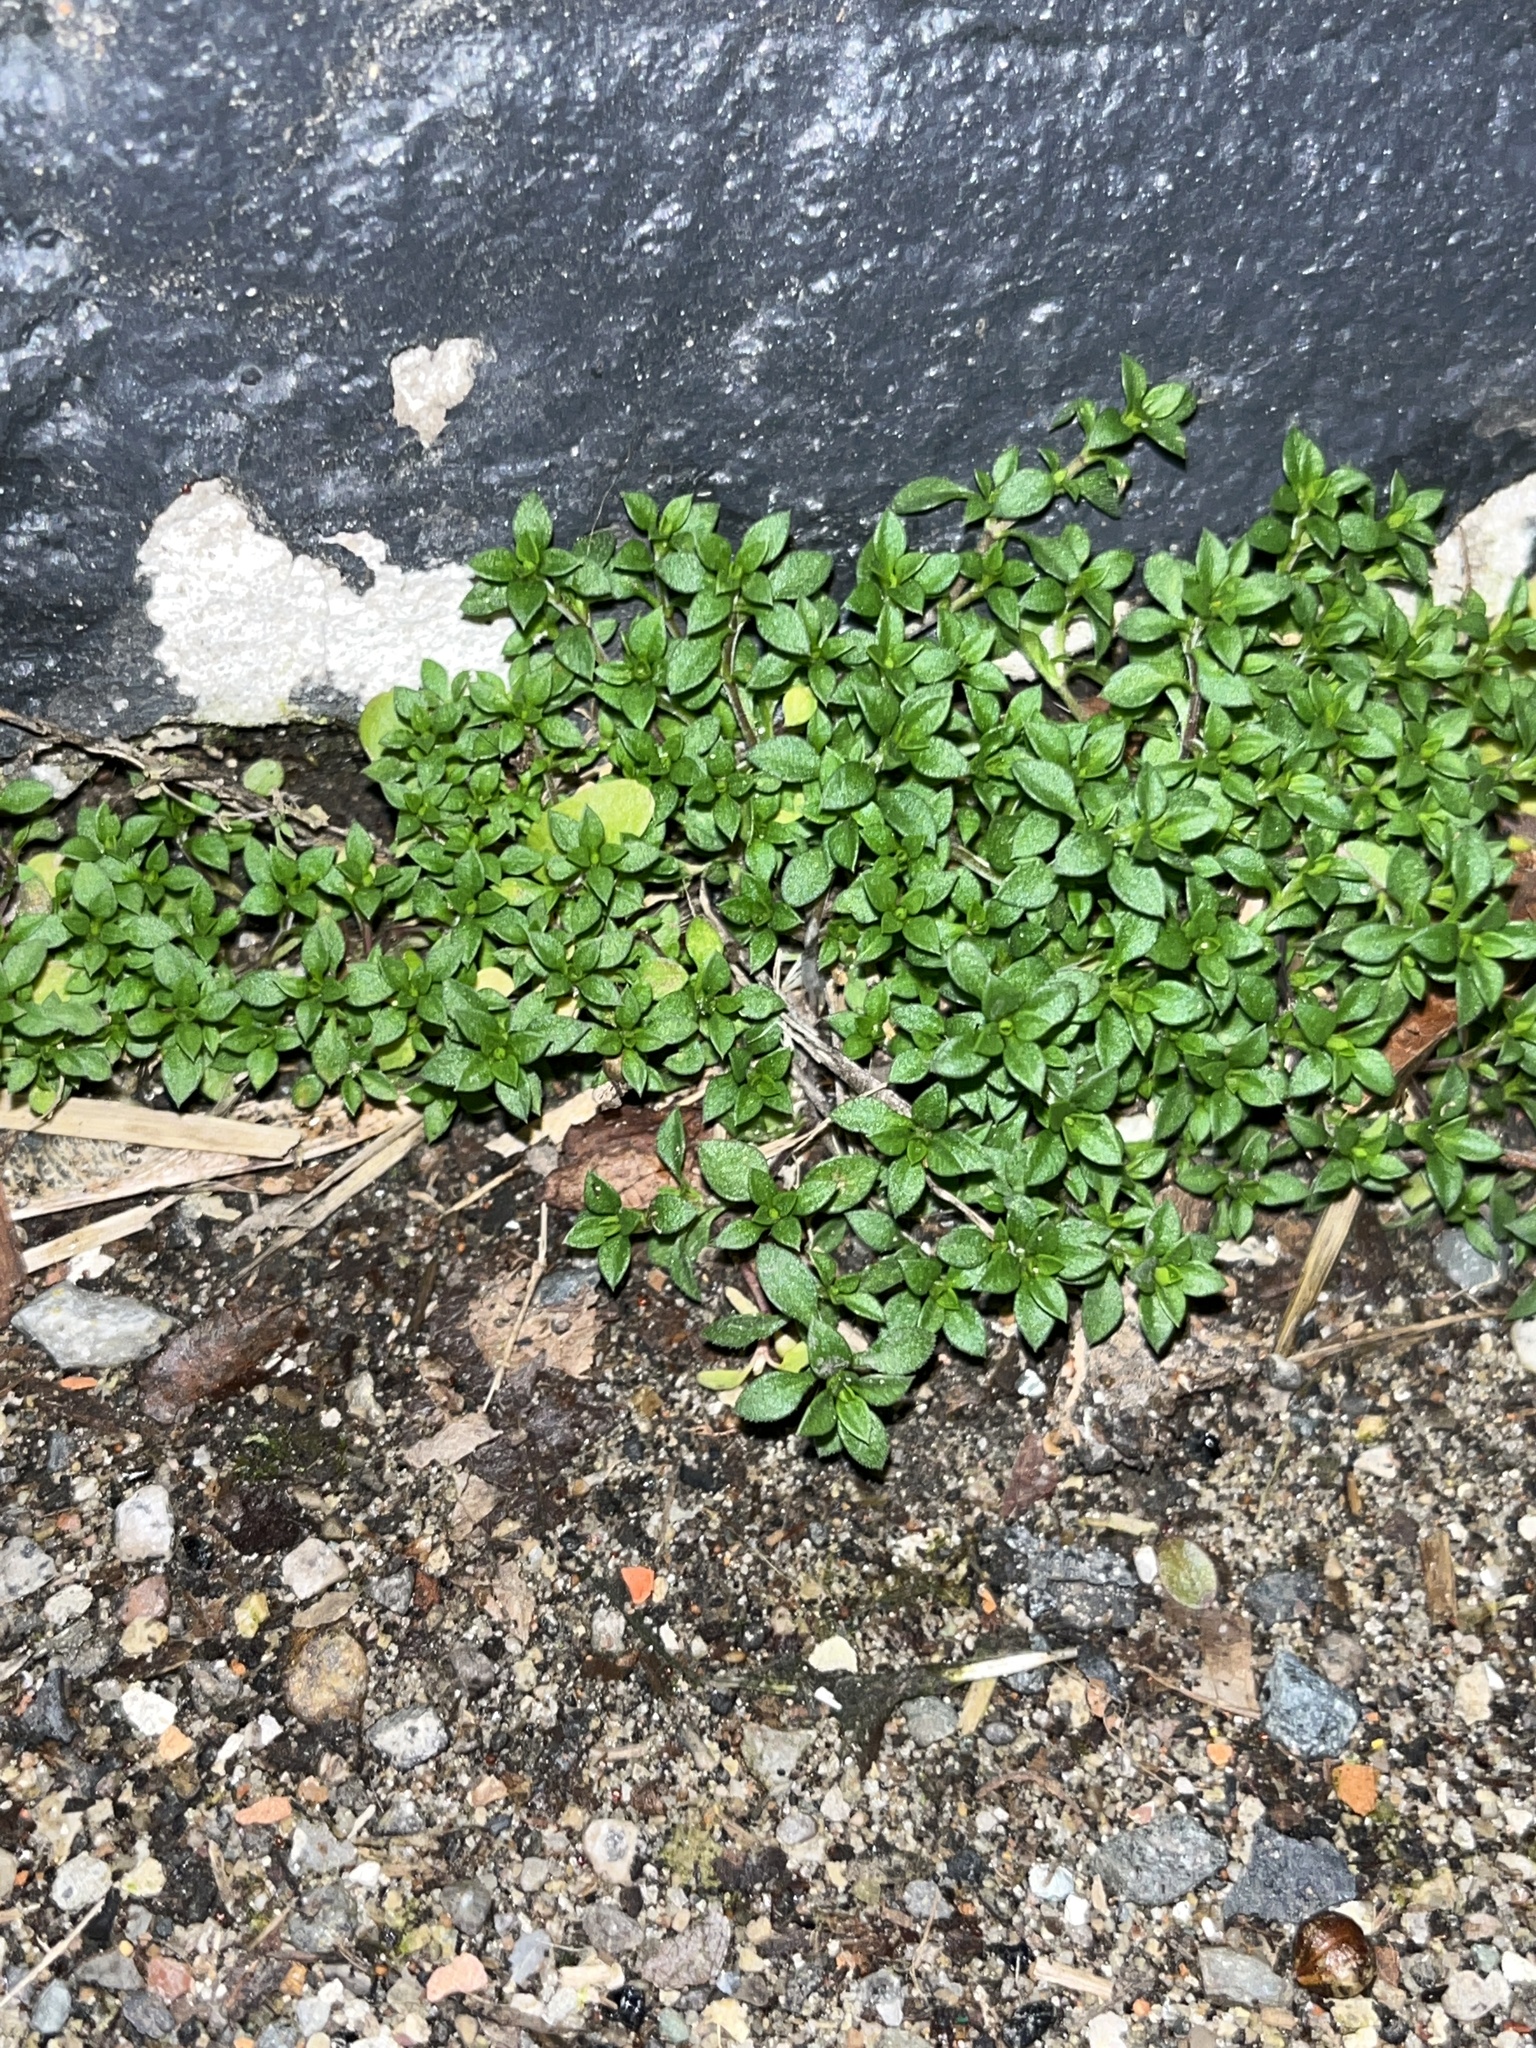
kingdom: Plantae
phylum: Tracheophyta
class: Magnoliopsida
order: Caryophyllales
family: Caryophyllaceae
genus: Stellaria
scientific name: Stellaria media
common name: Common chickweed
